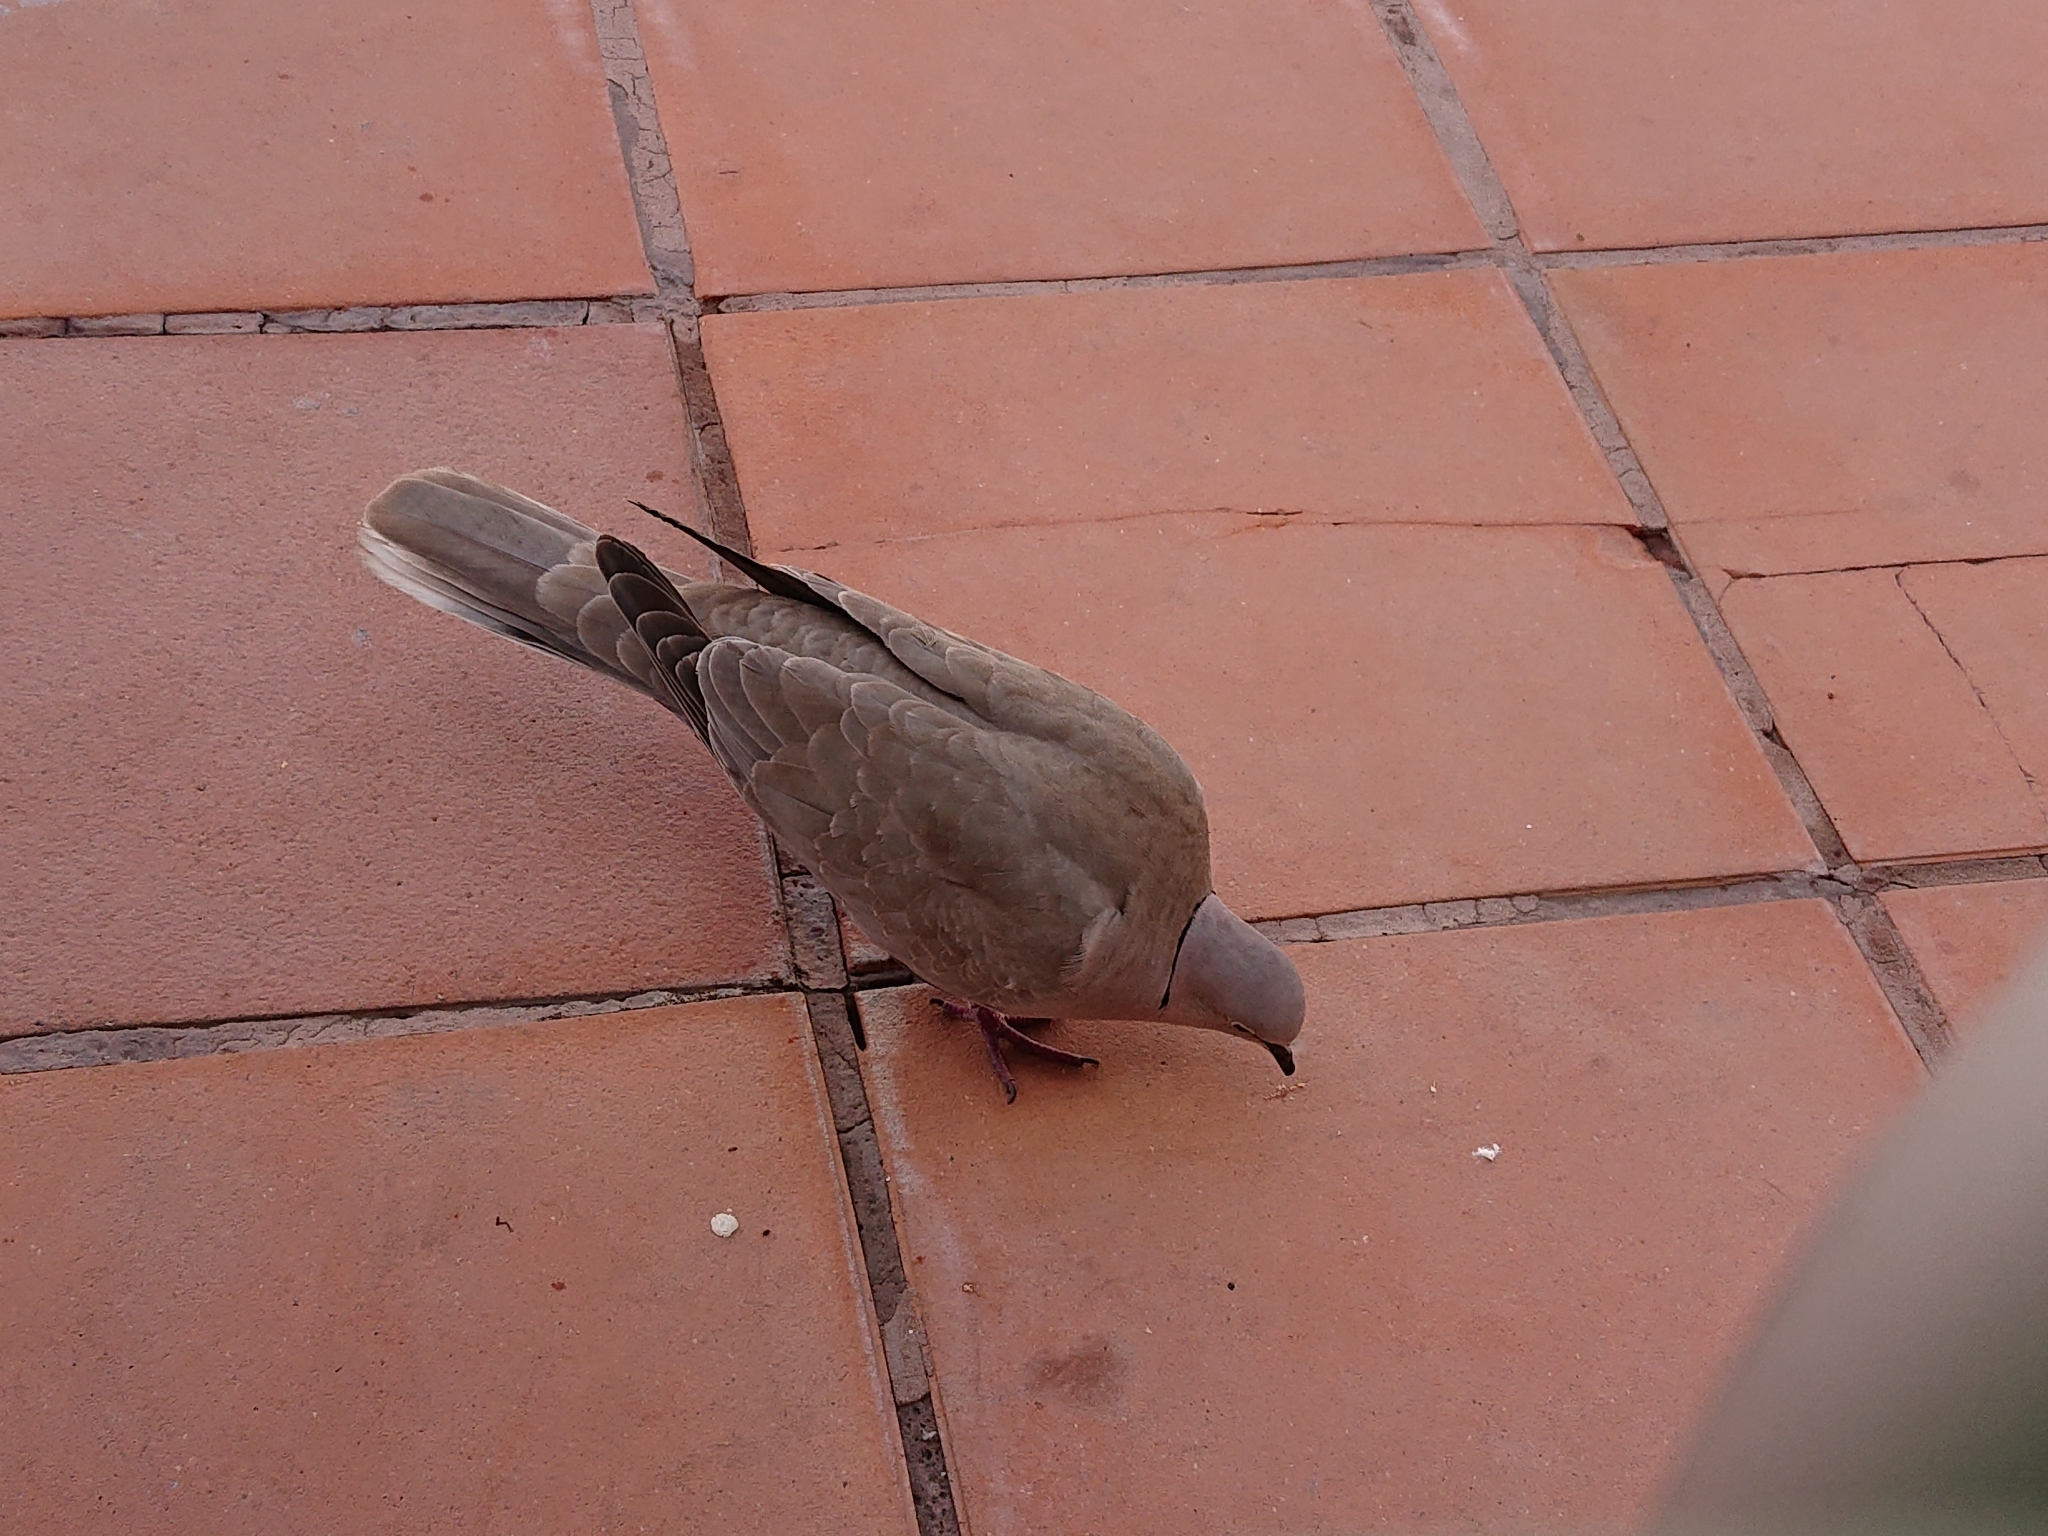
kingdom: Animalia
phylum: Chordata
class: Aves
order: Columbiformes
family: Columbidae
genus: Streptopelia
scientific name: Streptopelia decaocto
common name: Eurasian collared dove
